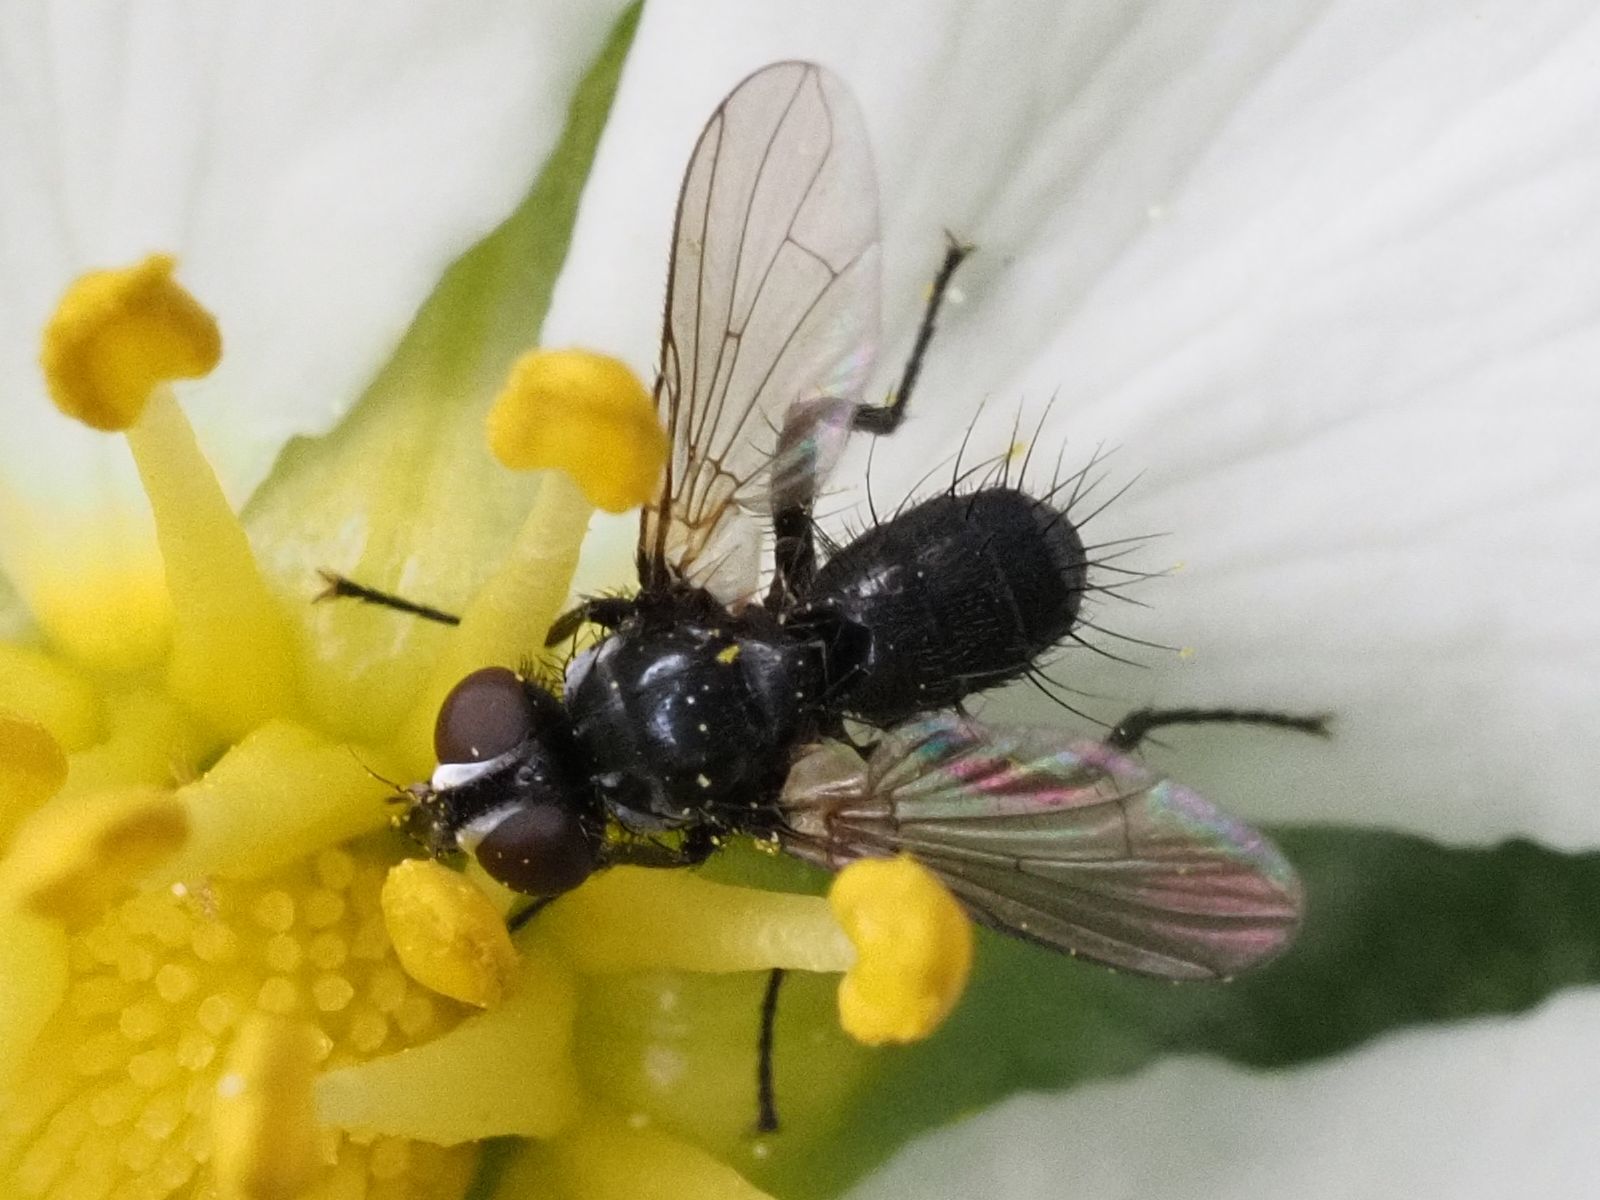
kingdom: Animalia
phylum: Arthropoda
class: Insecta
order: Diptera
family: Tachinidae
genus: Phania
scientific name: Phania funesta
